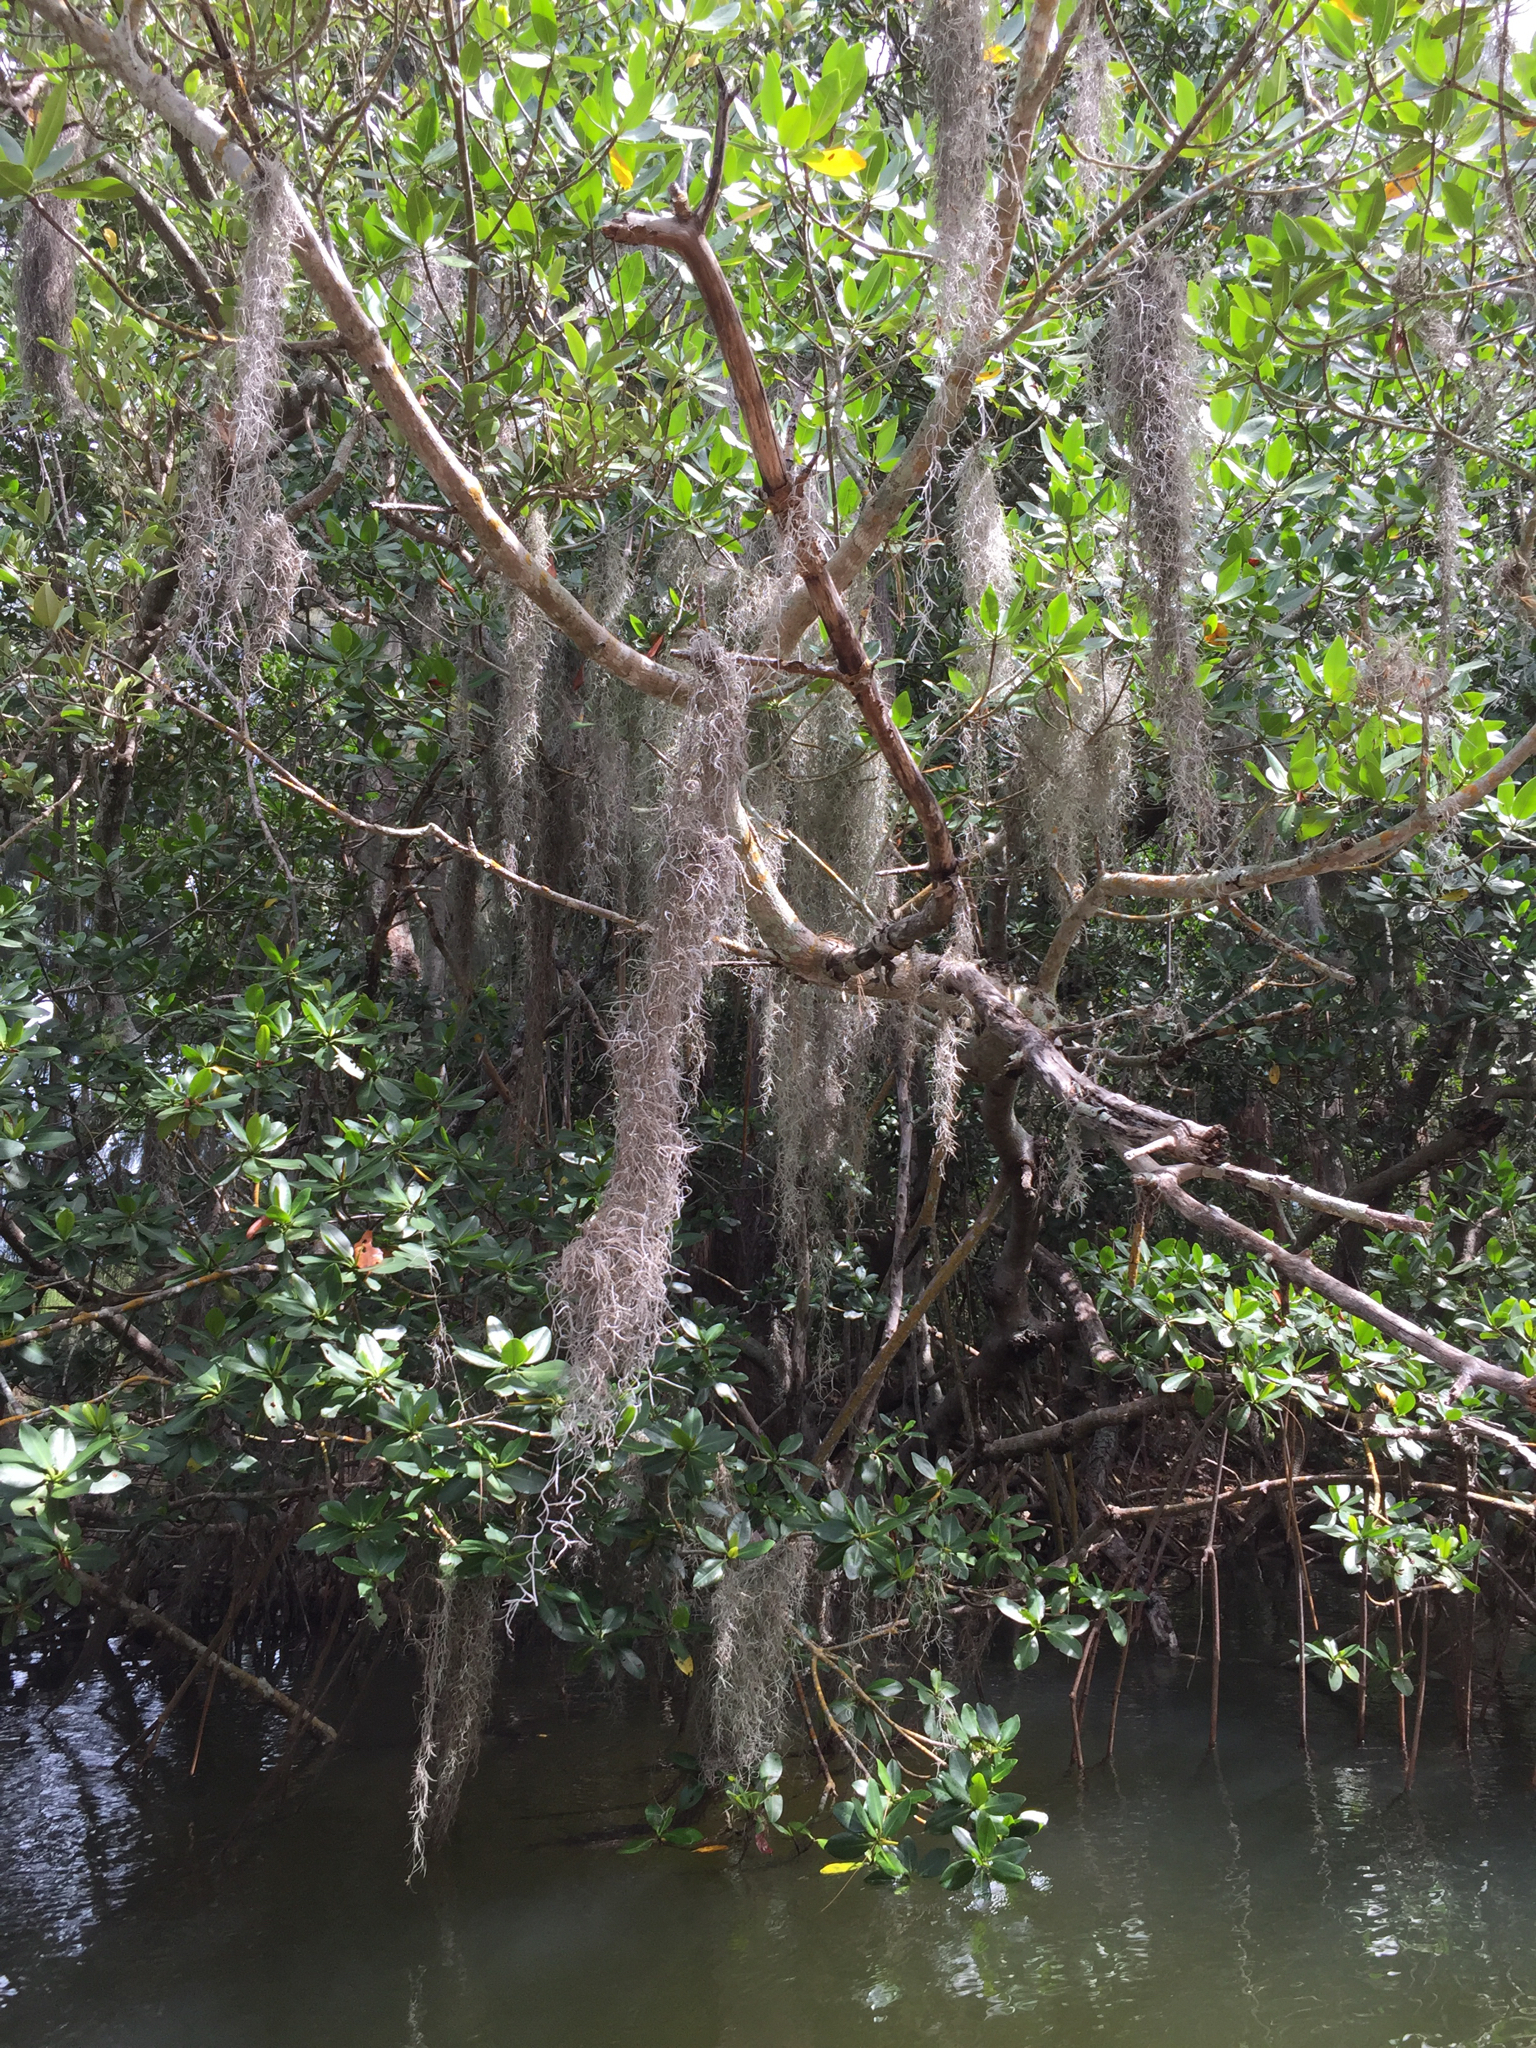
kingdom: Plantae
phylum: Tracheophyta
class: Liliopsida
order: Poales
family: Bromeliaceae
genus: Tillandsia
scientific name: Tillandsia usneoides
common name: Spanish moss
